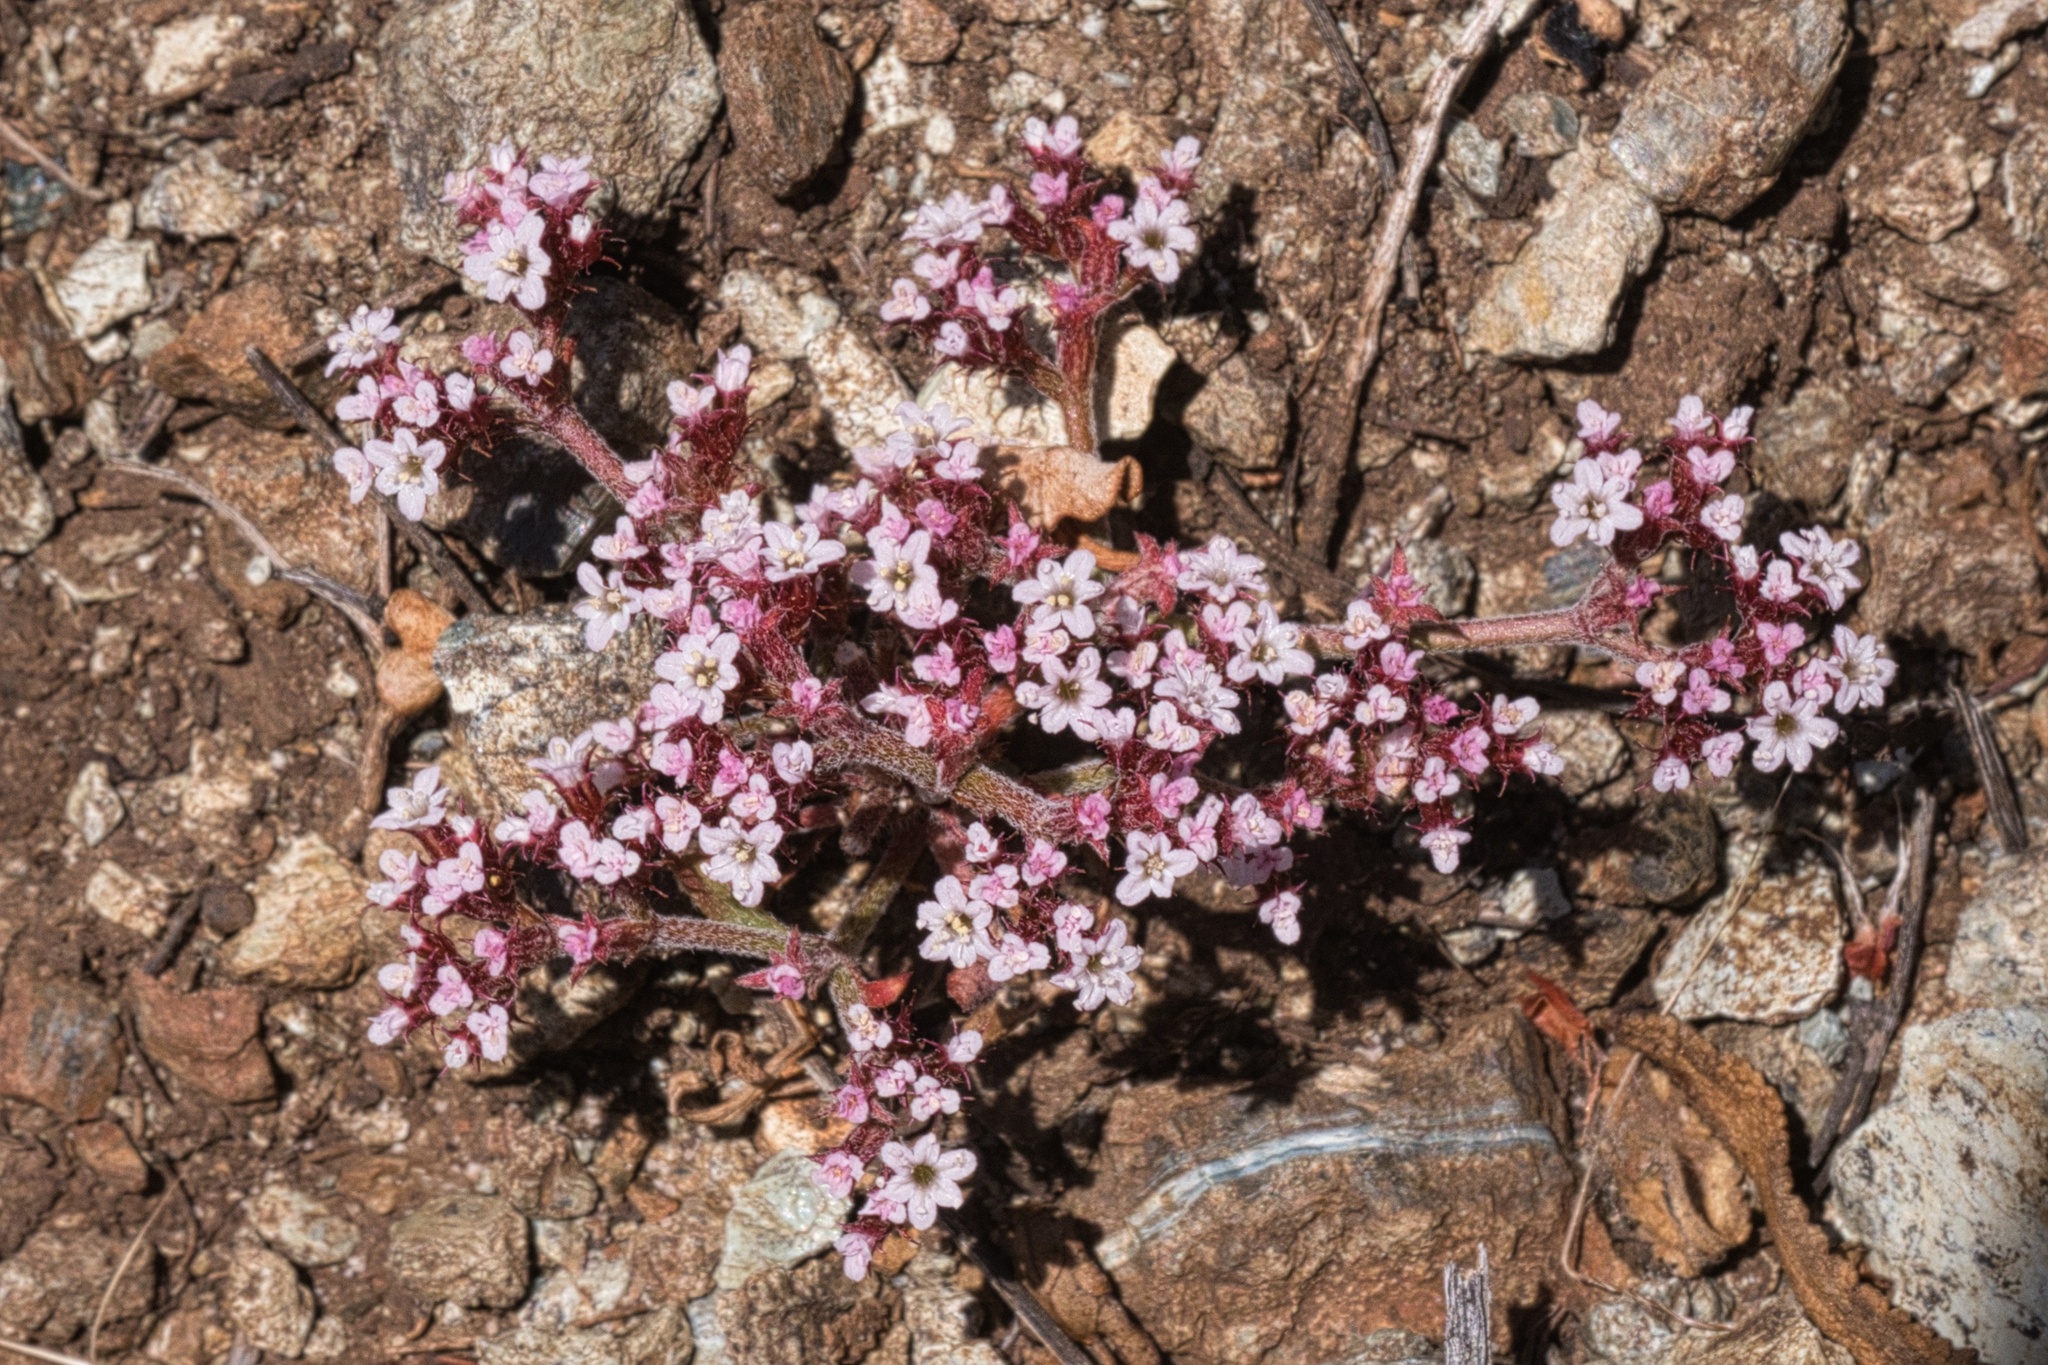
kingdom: Plantae
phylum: Tracheophyta
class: Magnoliopsida
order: Caryophyllales
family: Polygonaceae
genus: Chorizanthe
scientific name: Chorizanthe breweri
